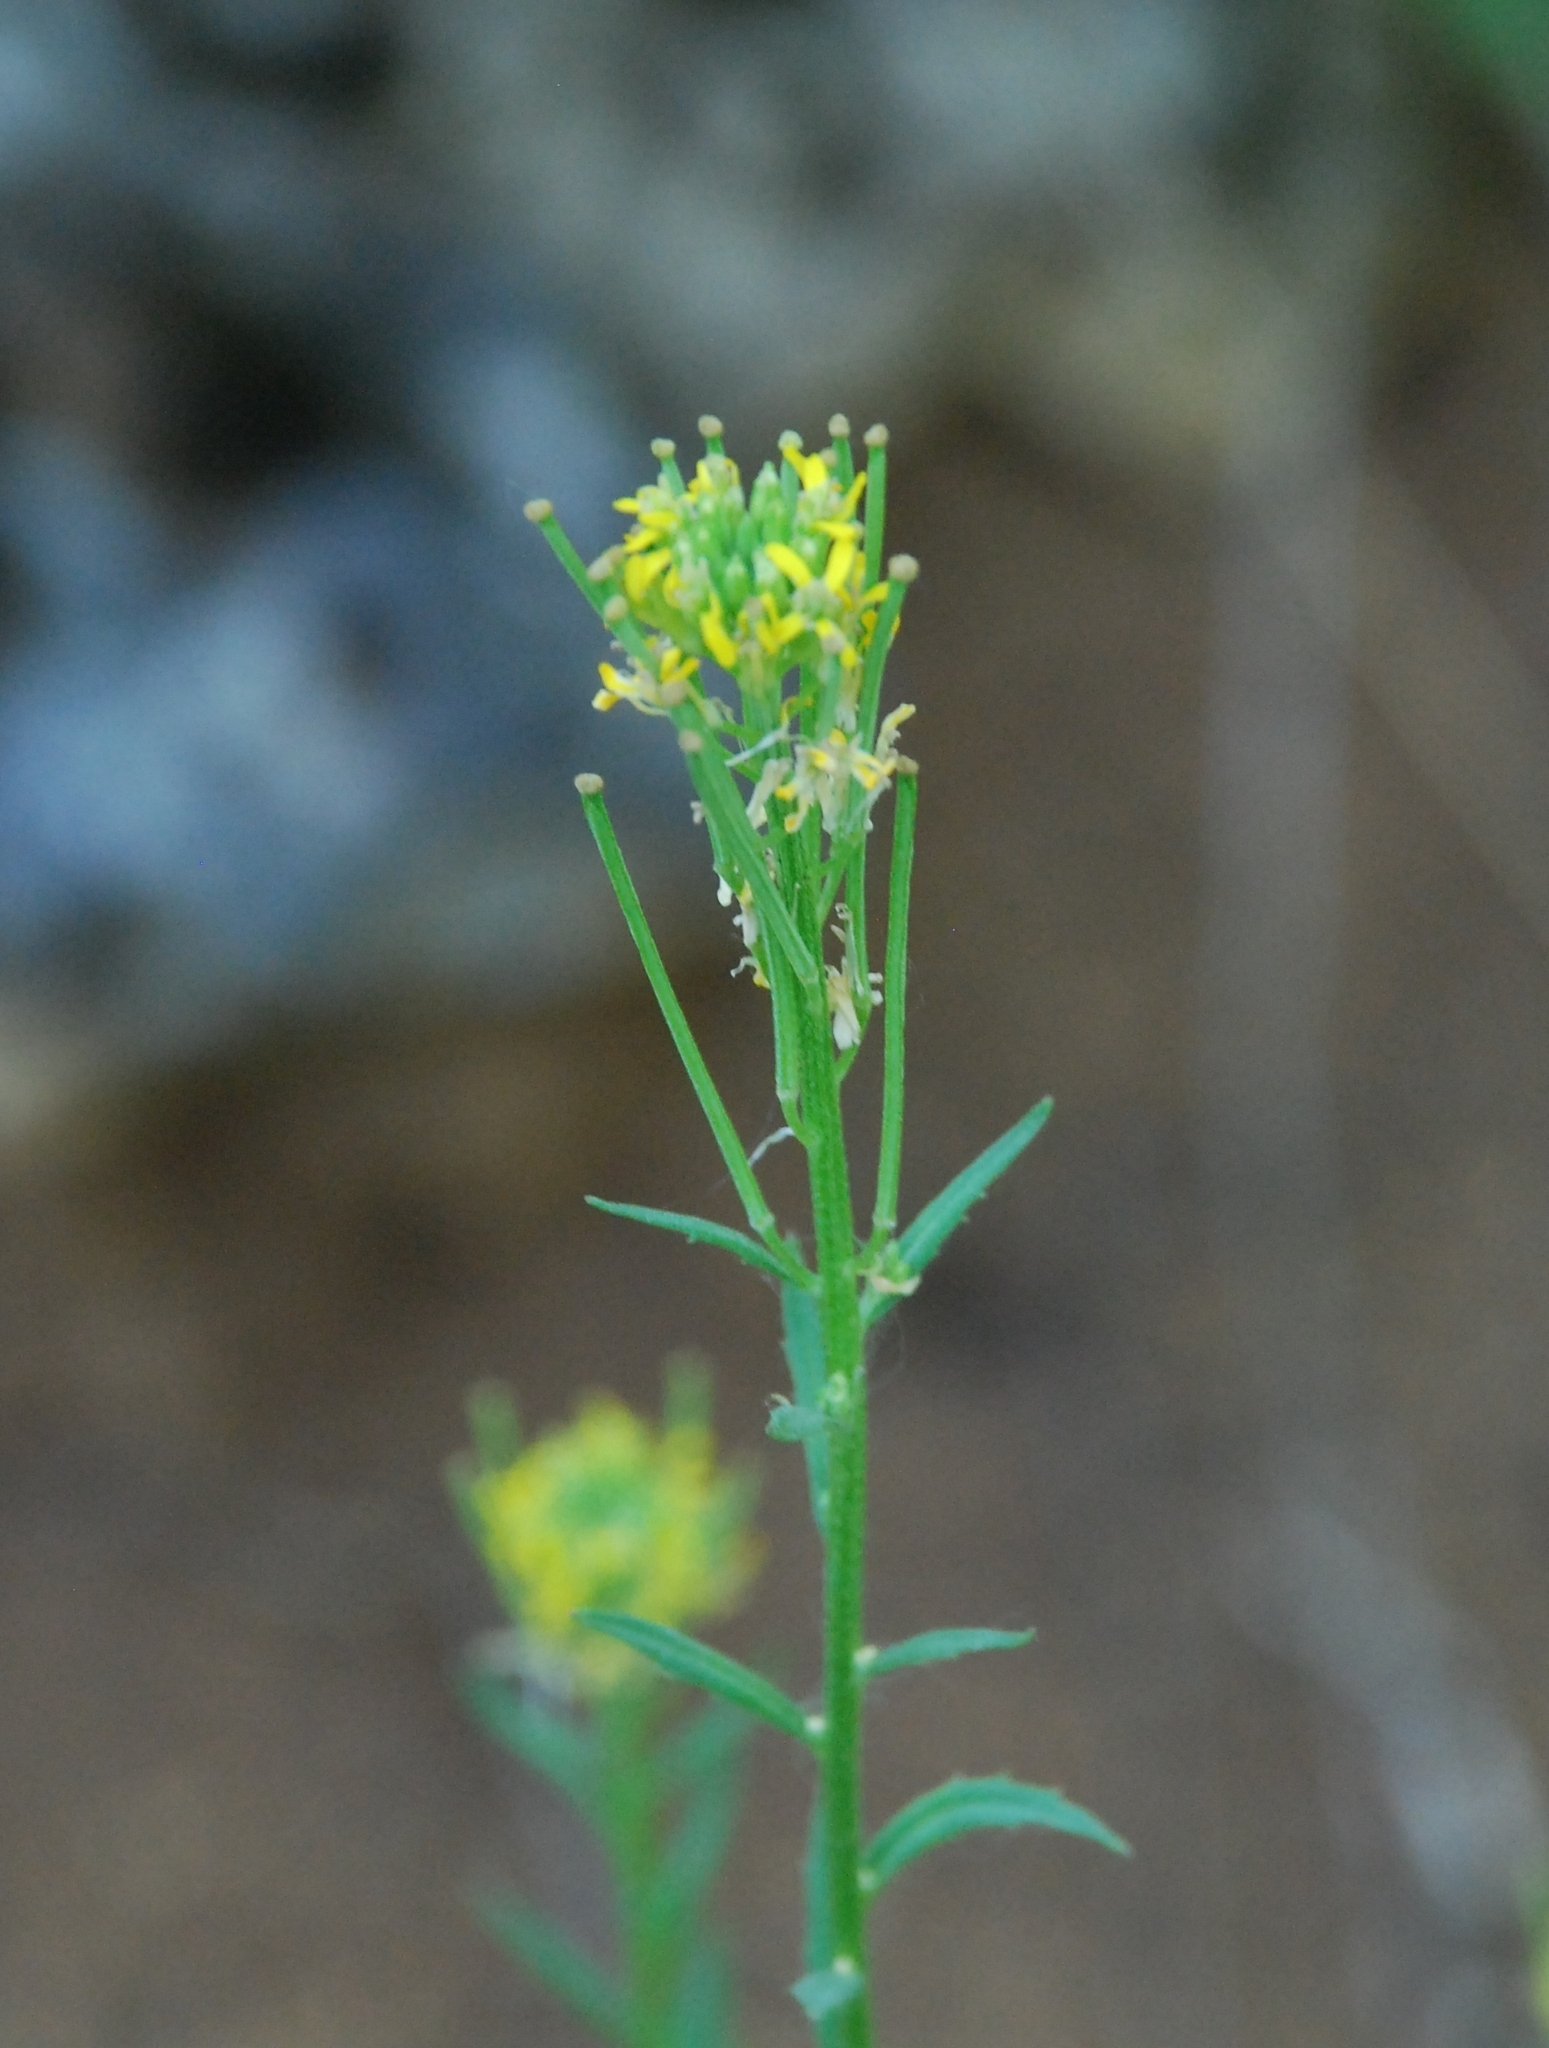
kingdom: Plantae
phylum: Tracheophyta
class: Magnoliopsida
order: Brassicales
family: Brassicaceae
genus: Erysimum
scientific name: Erysimum hieraciifolium
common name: European wallflower
